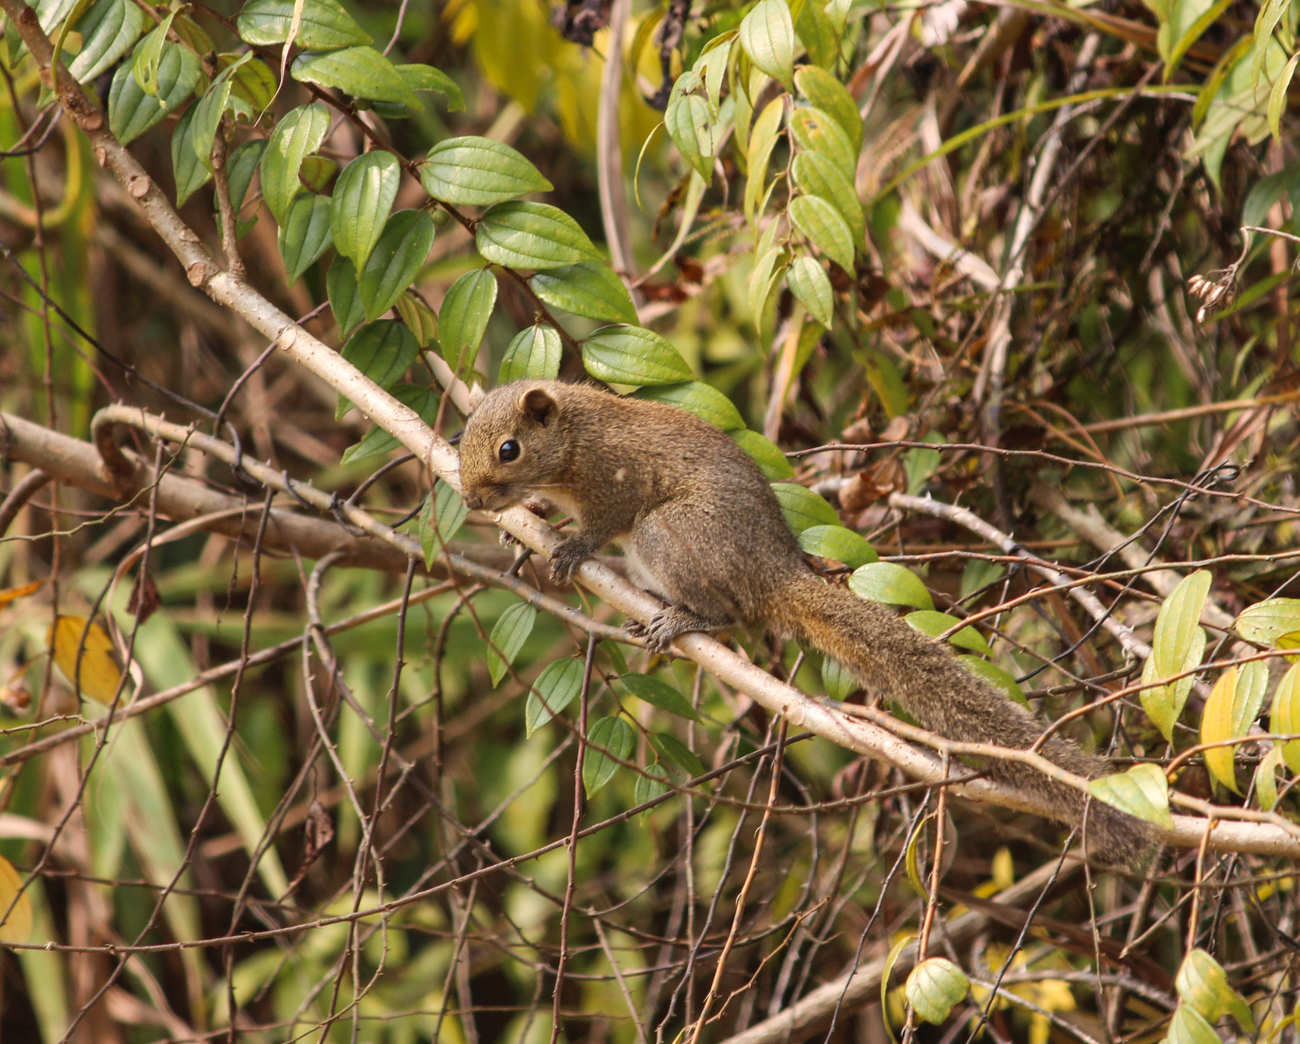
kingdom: Animalia
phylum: Chordata
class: Mammalia
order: Rodentia
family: Sciuridae
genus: Callosciurus
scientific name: Callosciurus pygerythrus
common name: Irrawaddy squirrel
